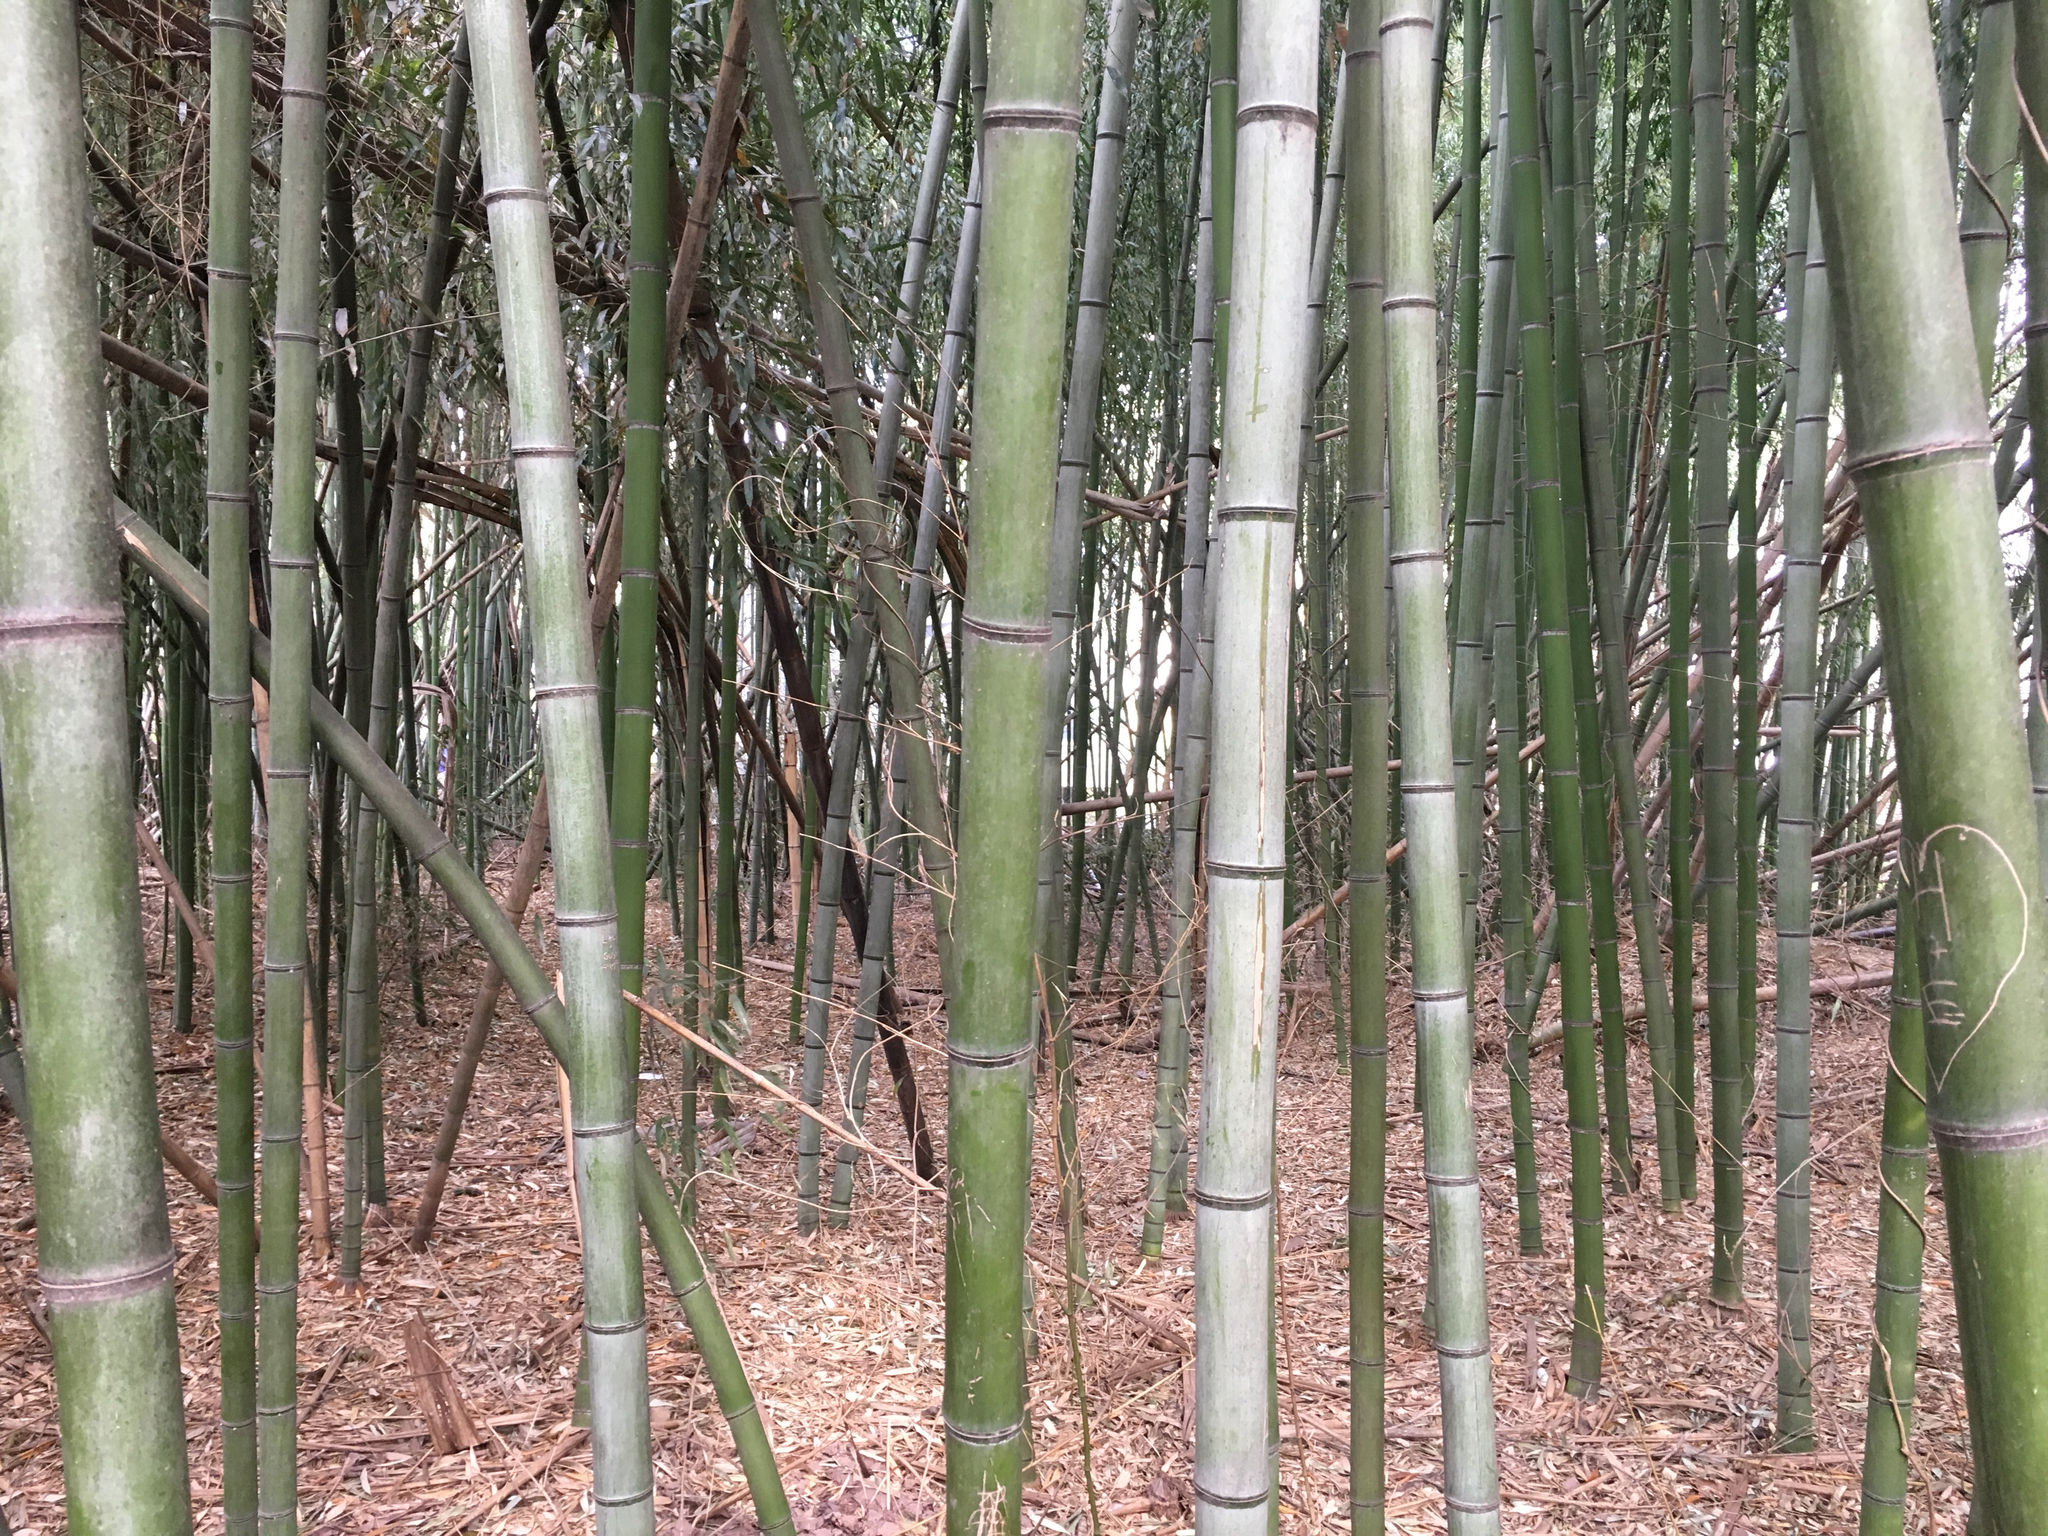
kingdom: Plantae
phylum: Tracheophyta
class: Liliopsida
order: Poales
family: Poaceae
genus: Phyllostachys
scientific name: Phyllostachys aurea
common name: Golden bamboo
